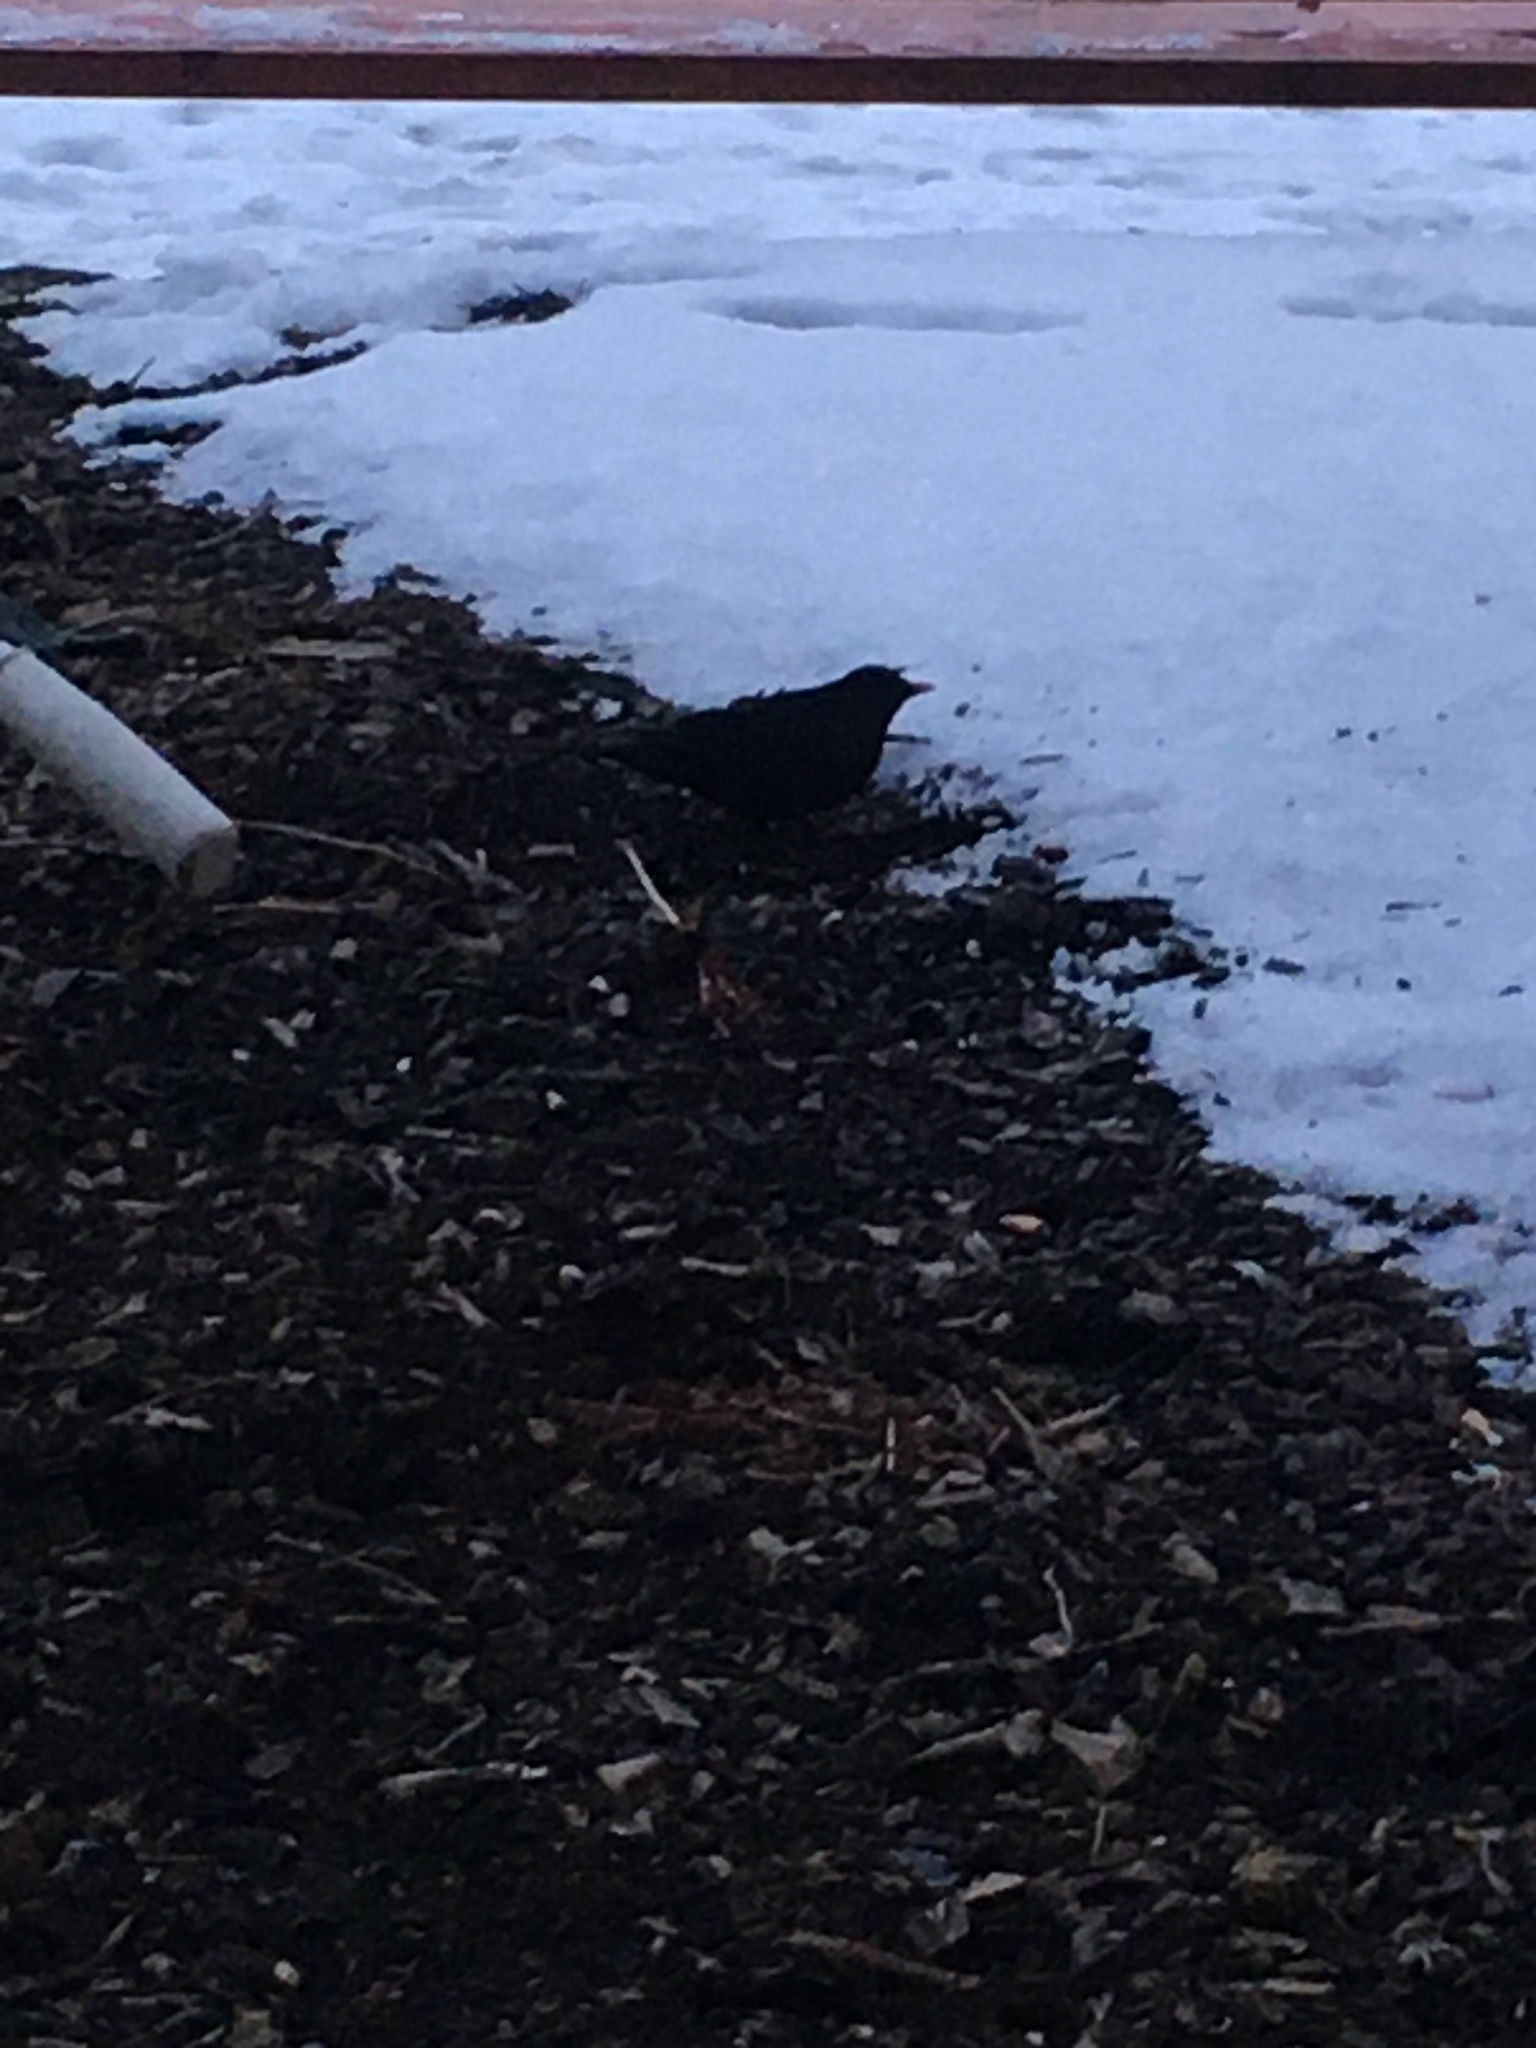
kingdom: Animalia
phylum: Chordata
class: Aves
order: Passeriformes
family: Turdidae
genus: Turdus
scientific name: Turdus merula
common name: Common blackbird
